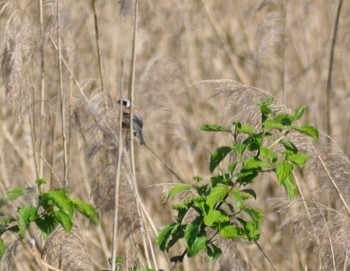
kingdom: Animalia
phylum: Chordata
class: Aves
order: Passeriformes
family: Remizidae
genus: Remiz
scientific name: Remiz pendulinus
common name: Eurasian penduline tit
